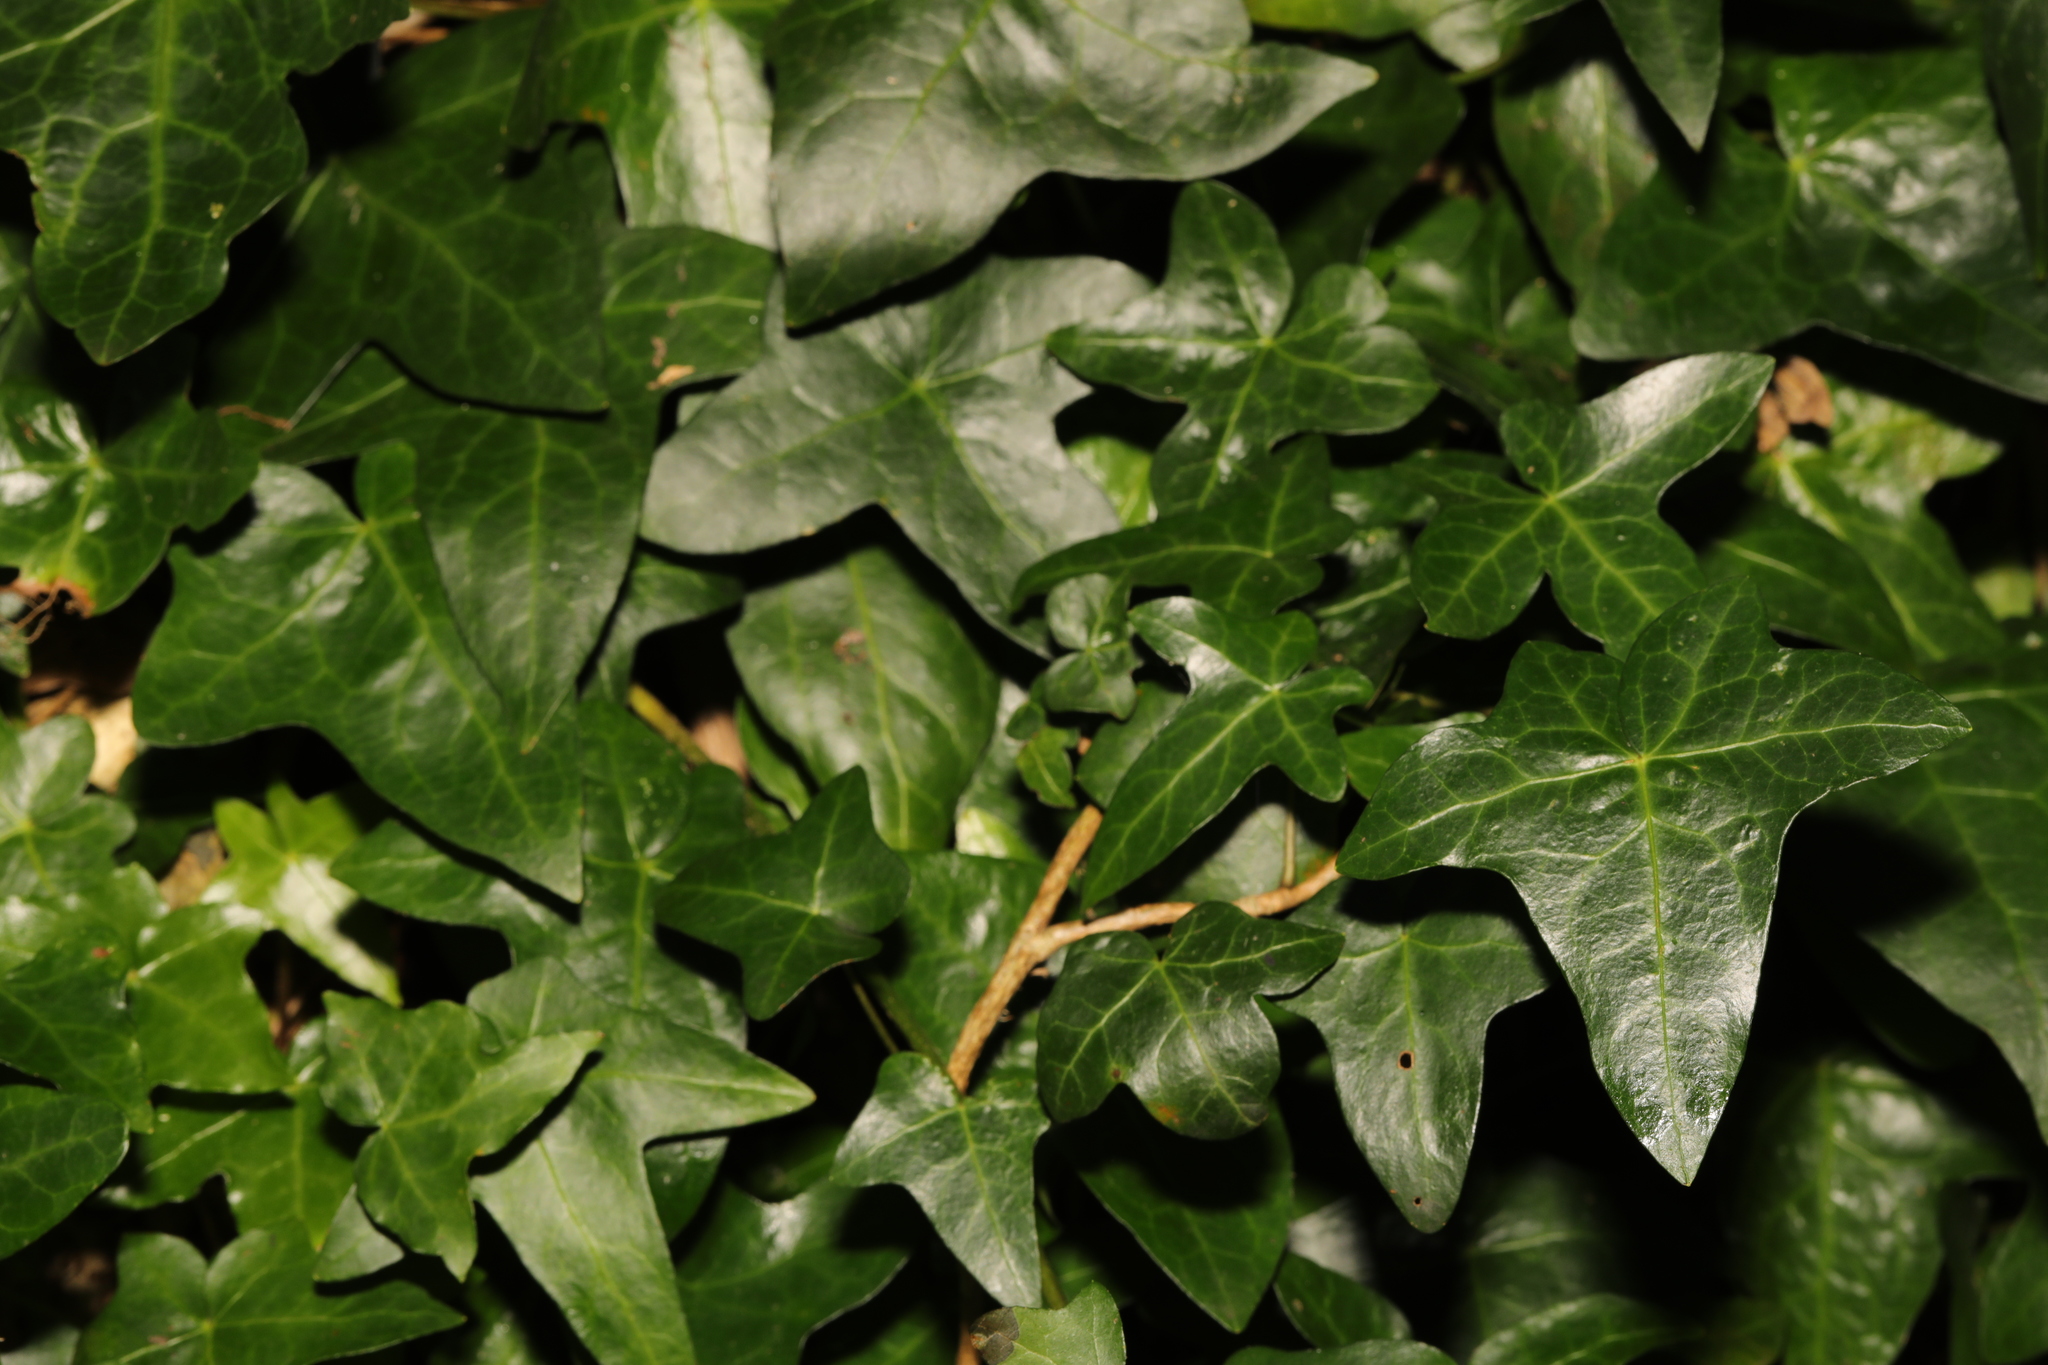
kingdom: Plantae
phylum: Tracheophyta
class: Magnoliopsida
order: Apiales
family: Araliaceae
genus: Hedera
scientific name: Hedera helix
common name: Ivy
